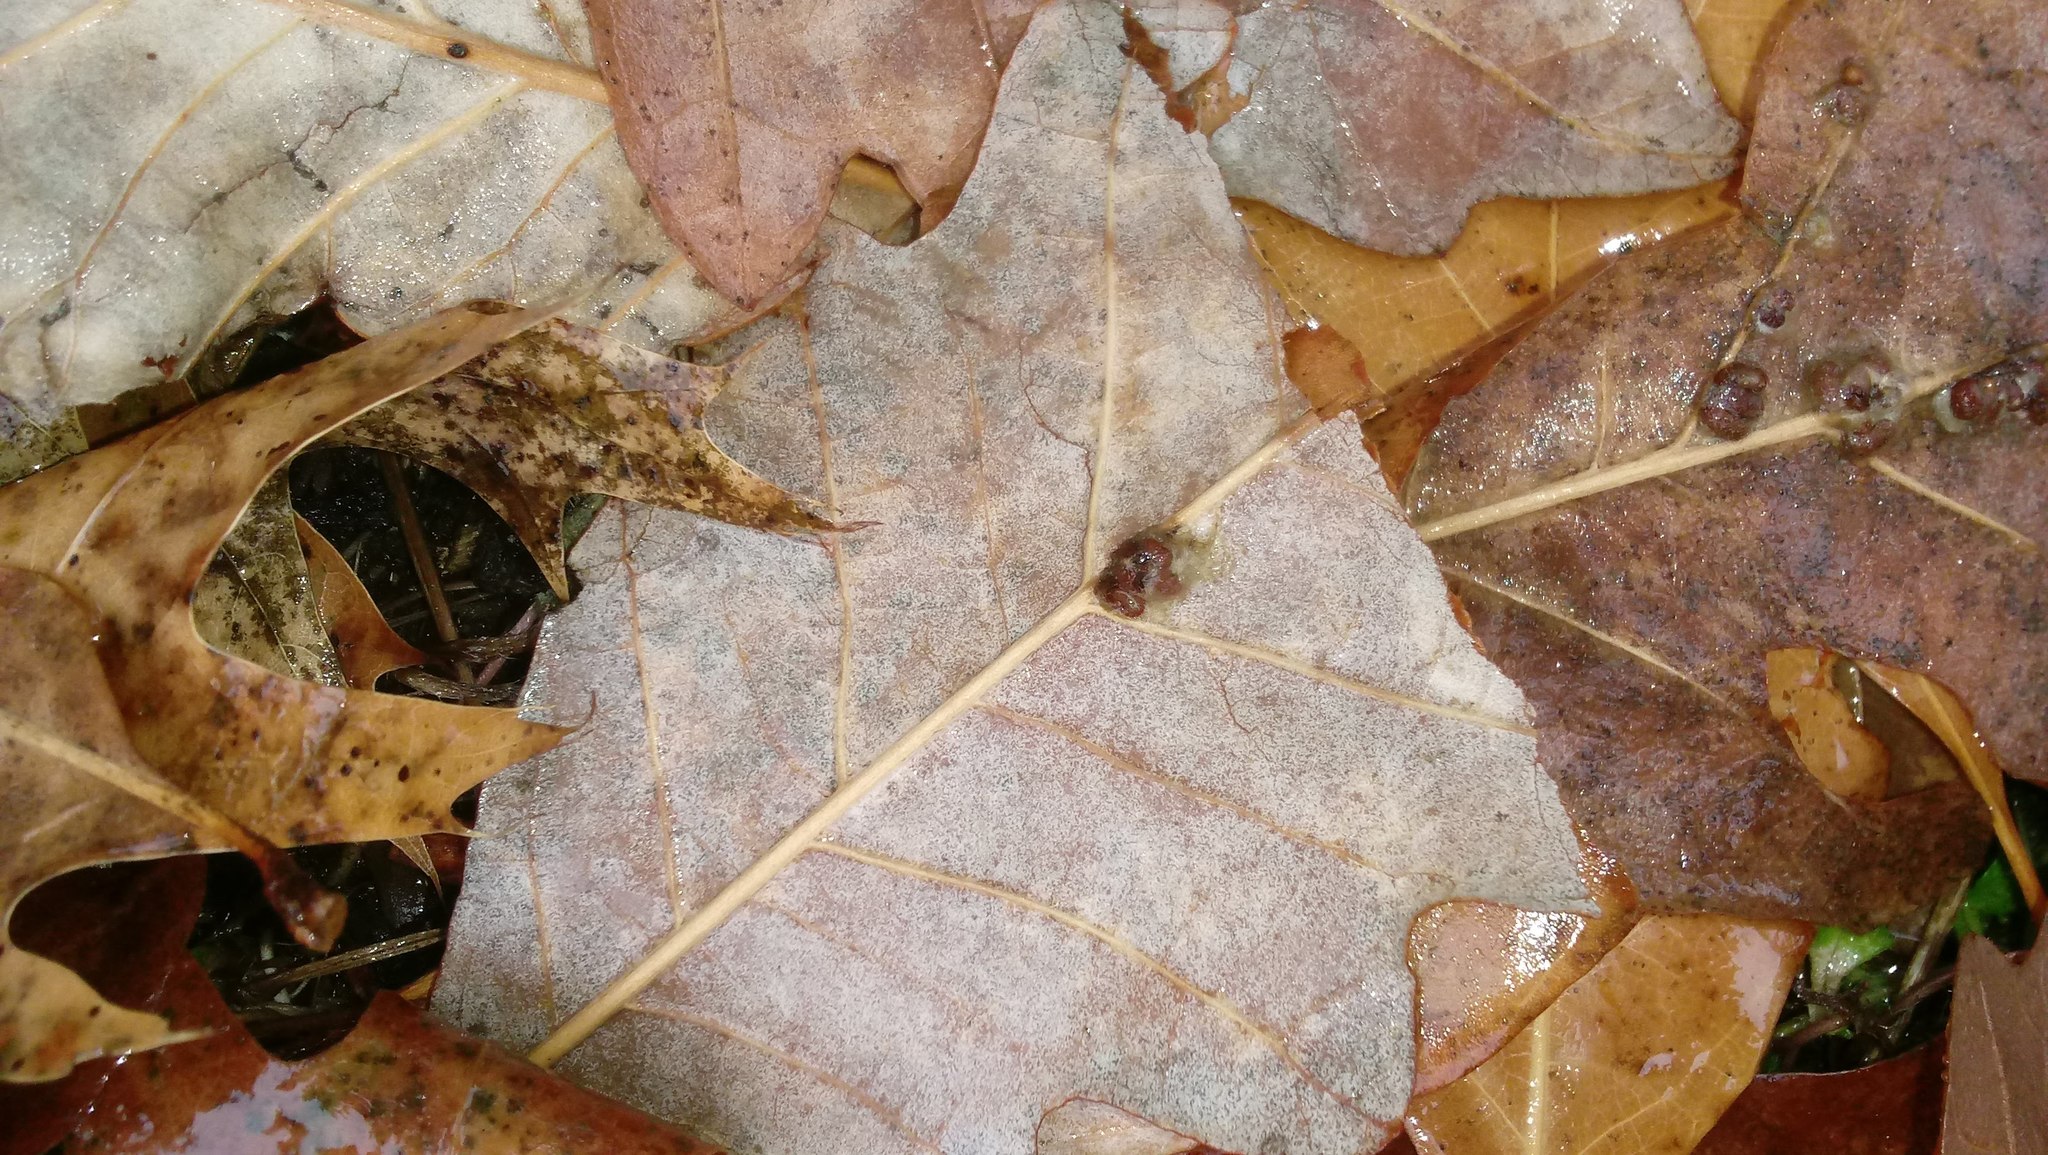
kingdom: Animalia
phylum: Arthropoda
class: Insecta
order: Hymenoptera
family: Cynipidae
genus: Andricus
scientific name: Andricus Druon ignotum
